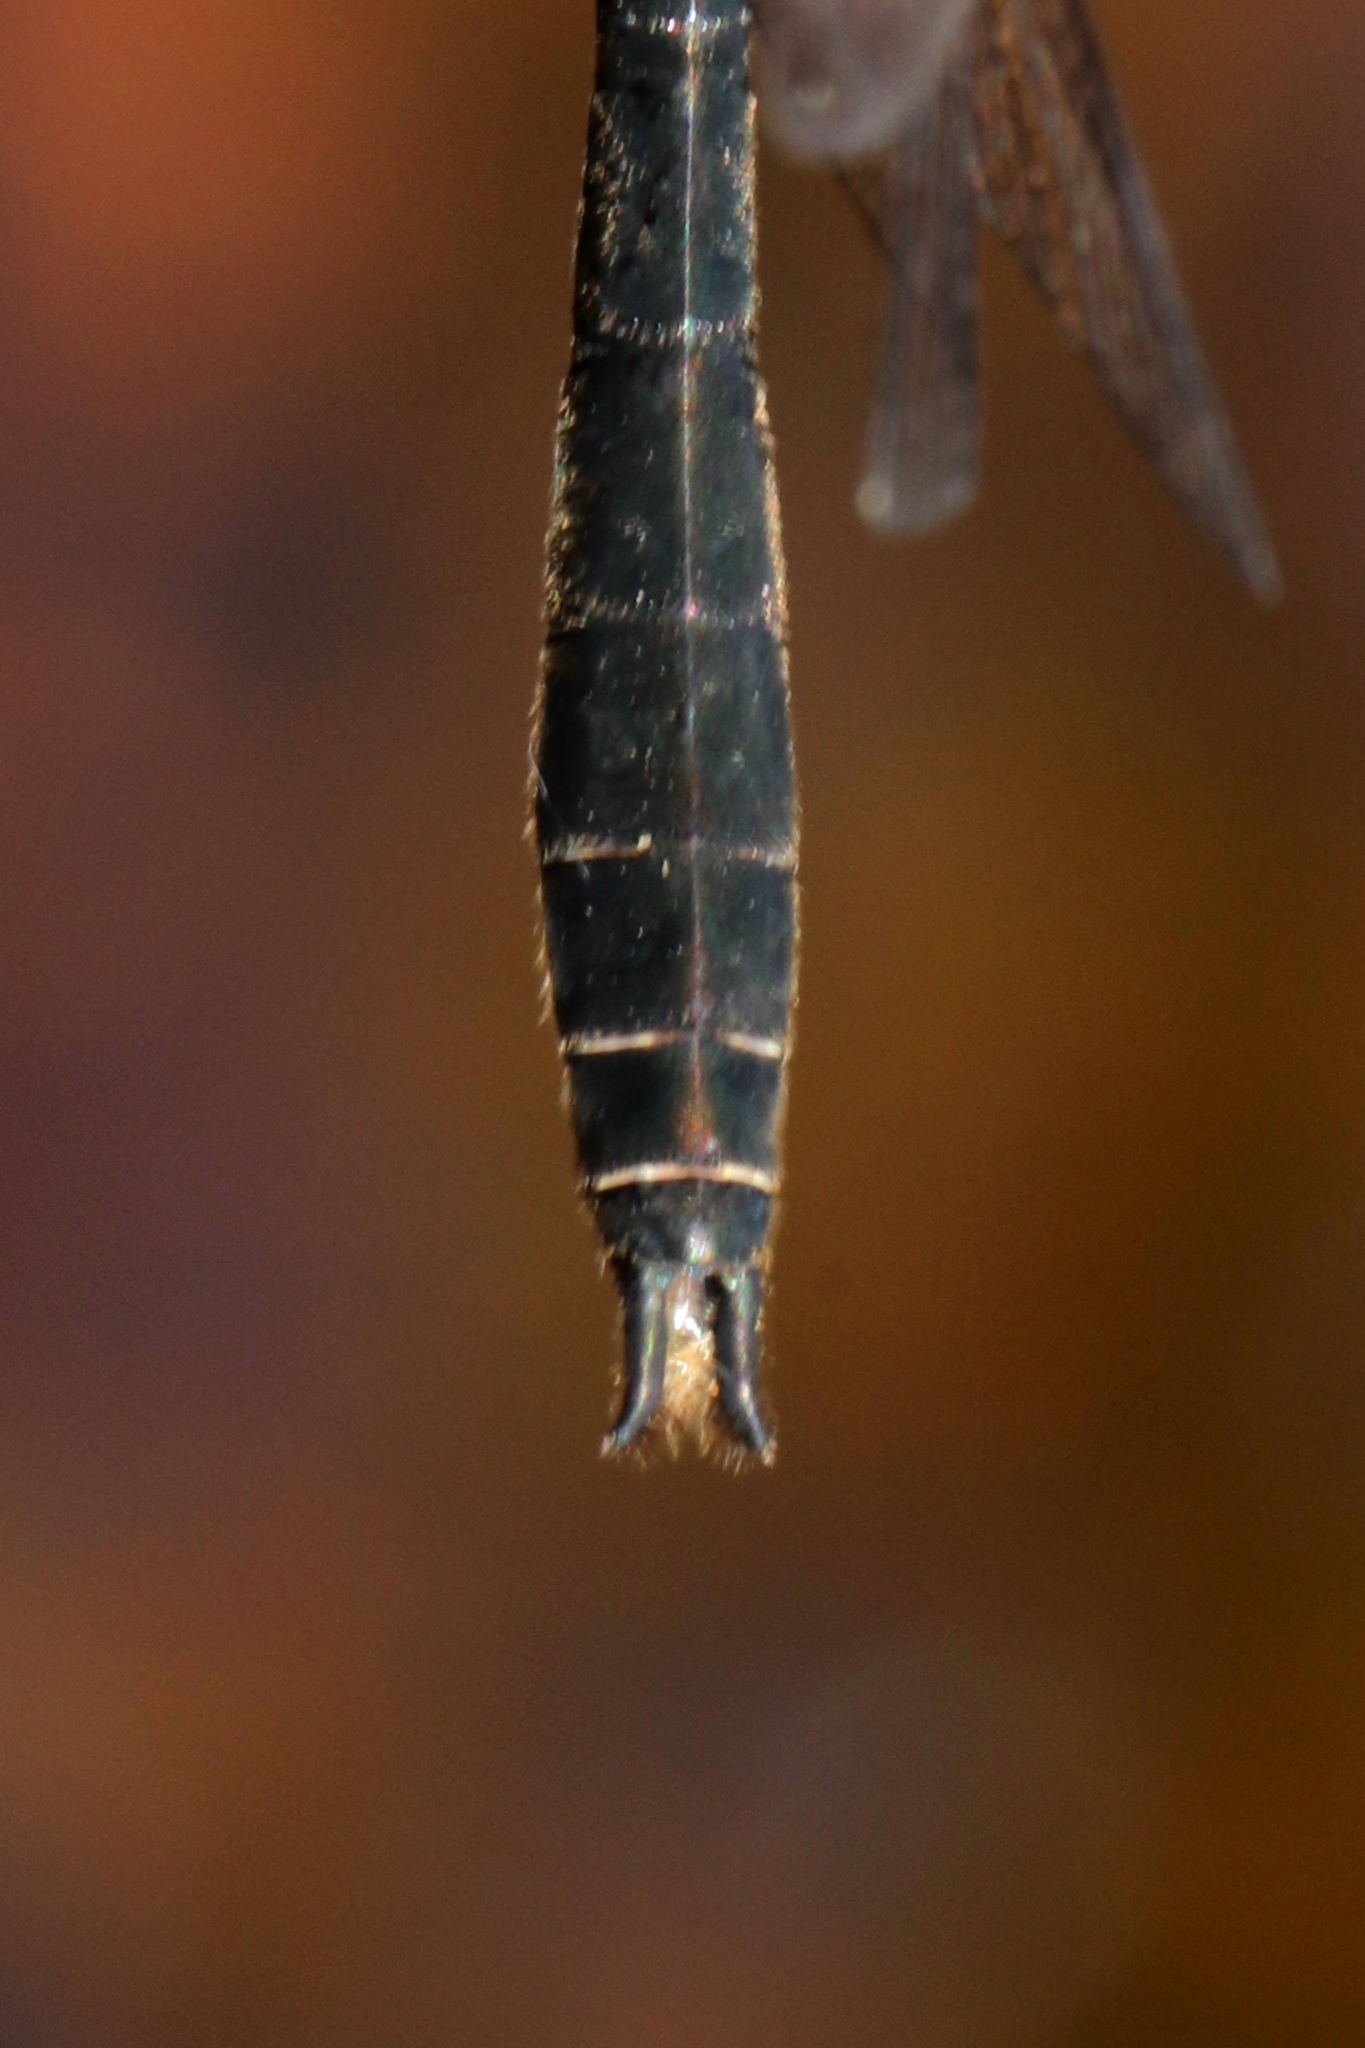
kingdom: Animalia
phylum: Arthropoda
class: Insecta
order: Odonata
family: Corduliidae
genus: Cordulia
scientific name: Cordulia shurtleffii
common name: American emerald
